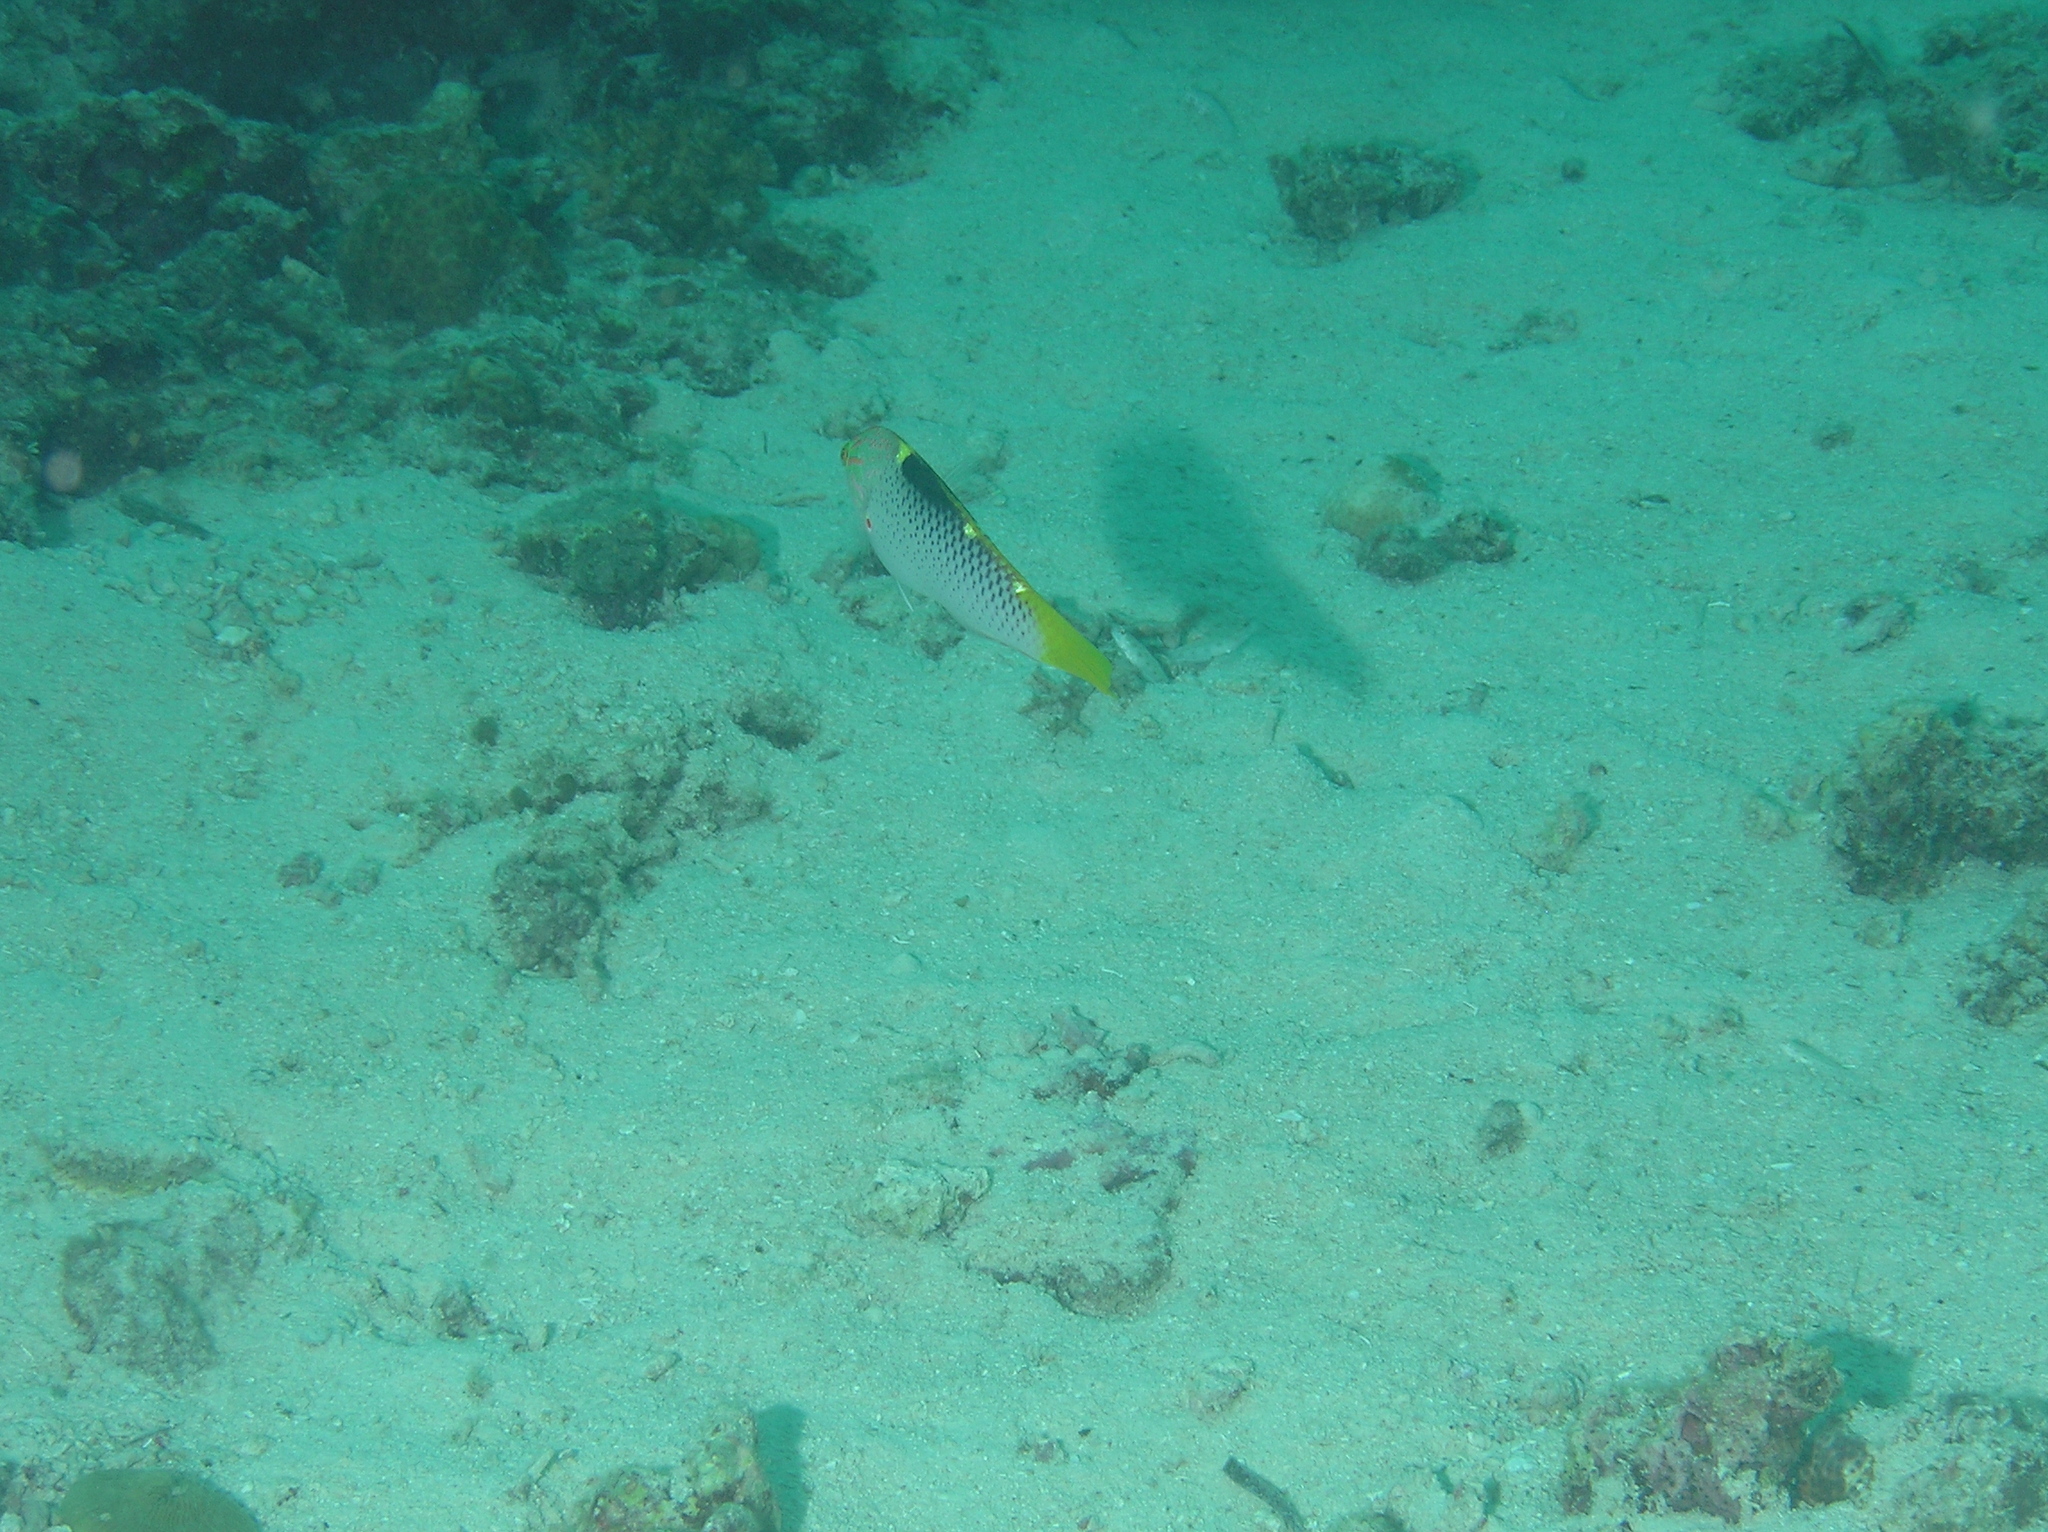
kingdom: Animalia
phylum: Chordata
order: Perciformes
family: Labridae
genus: Halichoeres
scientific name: Halichoeres hortulanus
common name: Checkerboard wrasse
